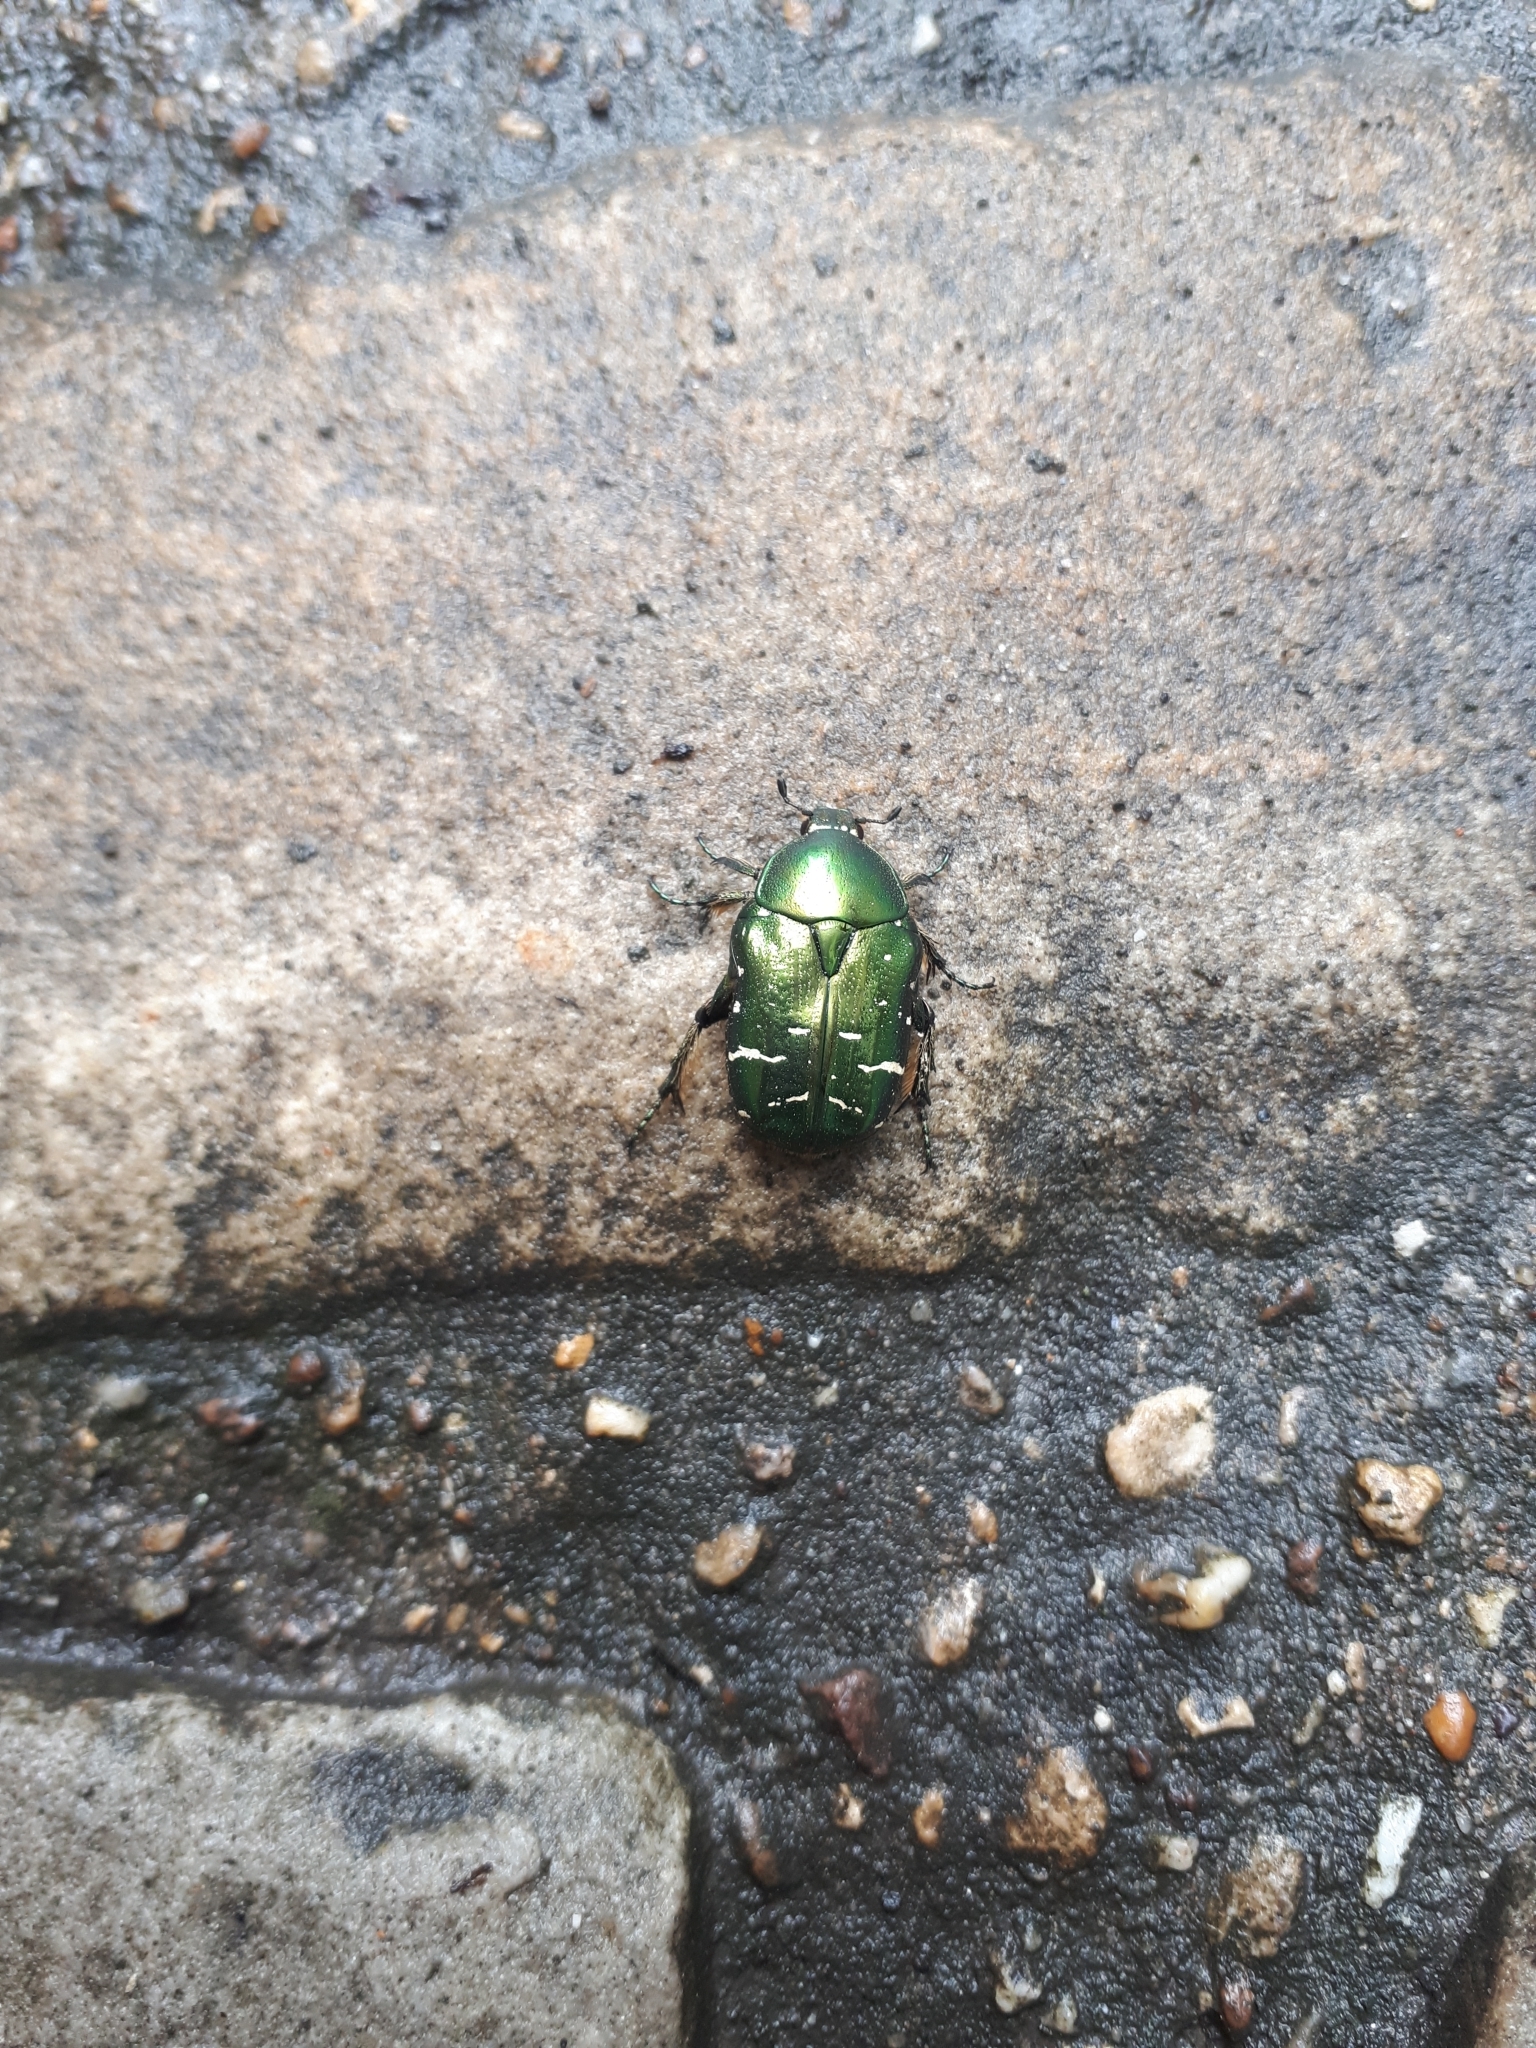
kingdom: Animalia
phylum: Arthropoda
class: Insecta
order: Coleoptera
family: Scarabaeidae
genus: Cetonia
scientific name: Cetonia aurata
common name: Rose chafer
